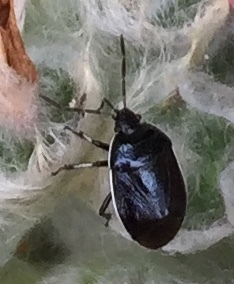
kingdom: Animalia
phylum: Arthropoda
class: Insecta
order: Hemiptera
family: Cydnidae
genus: Sehirus
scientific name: Sehirus cinctus
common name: White-margined burrower bug
